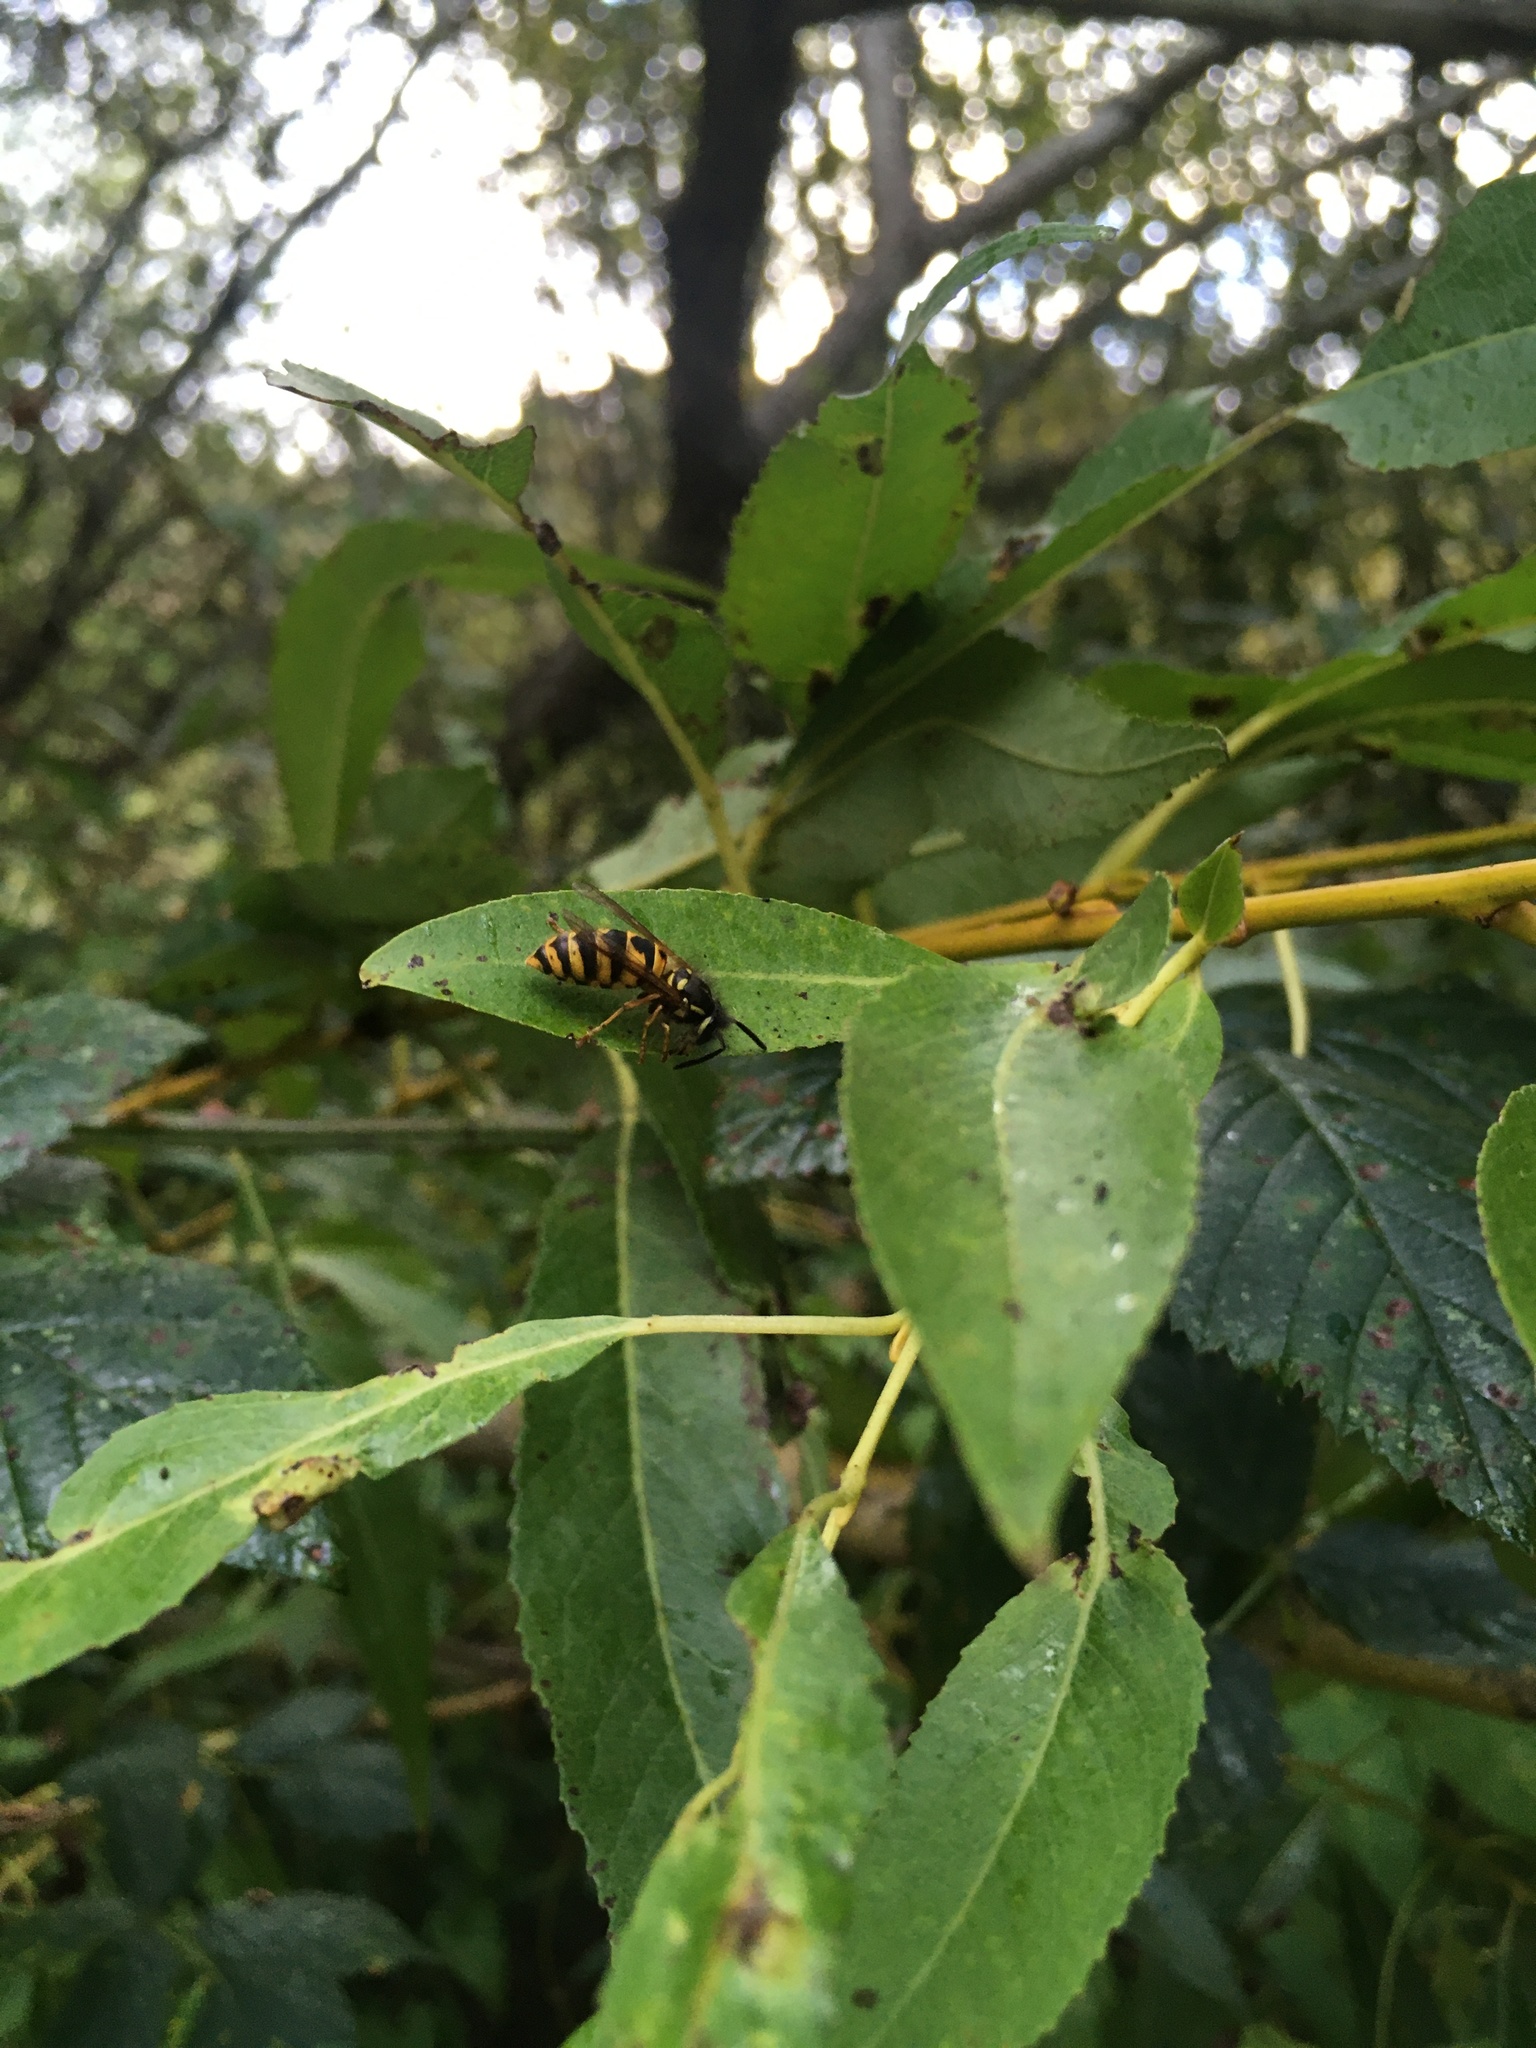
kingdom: Animalia
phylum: Arthropoda
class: Insecta
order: Hymenoptera
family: Vespidae
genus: Vespula
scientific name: Vespula vulgaris
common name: Common wasp
